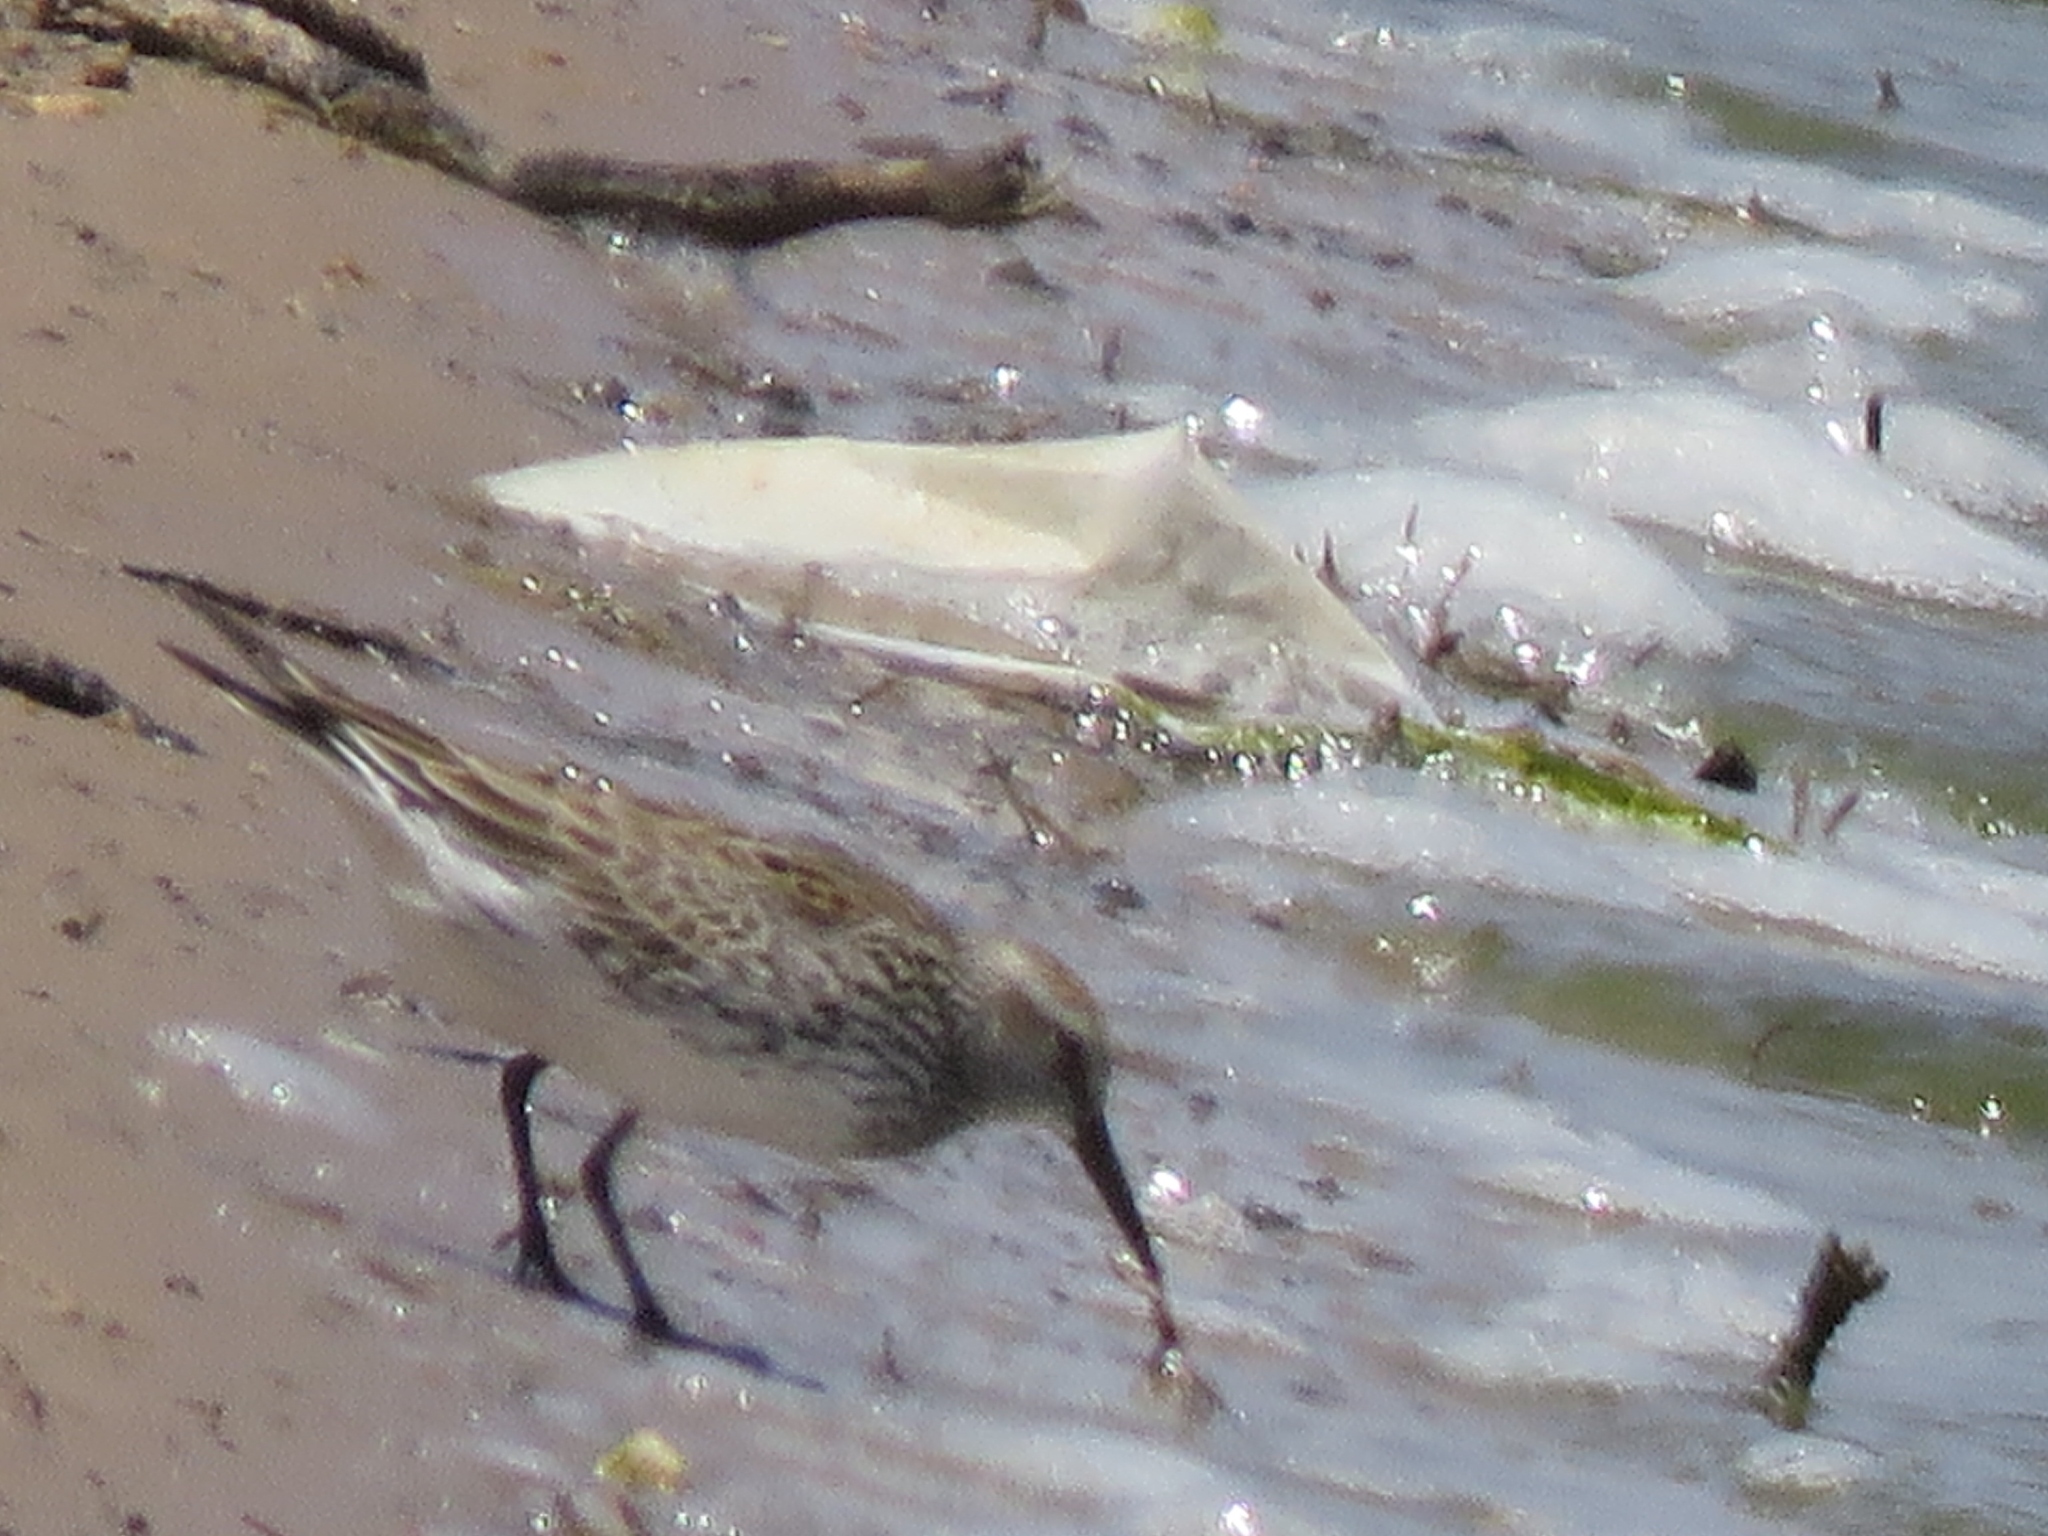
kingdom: Animalia
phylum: Chordata
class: Aves
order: Charadriiformes
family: Scolopacidae
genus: Calidris
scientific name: Calidris fuscicollis
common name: White-rumped sandpiper
